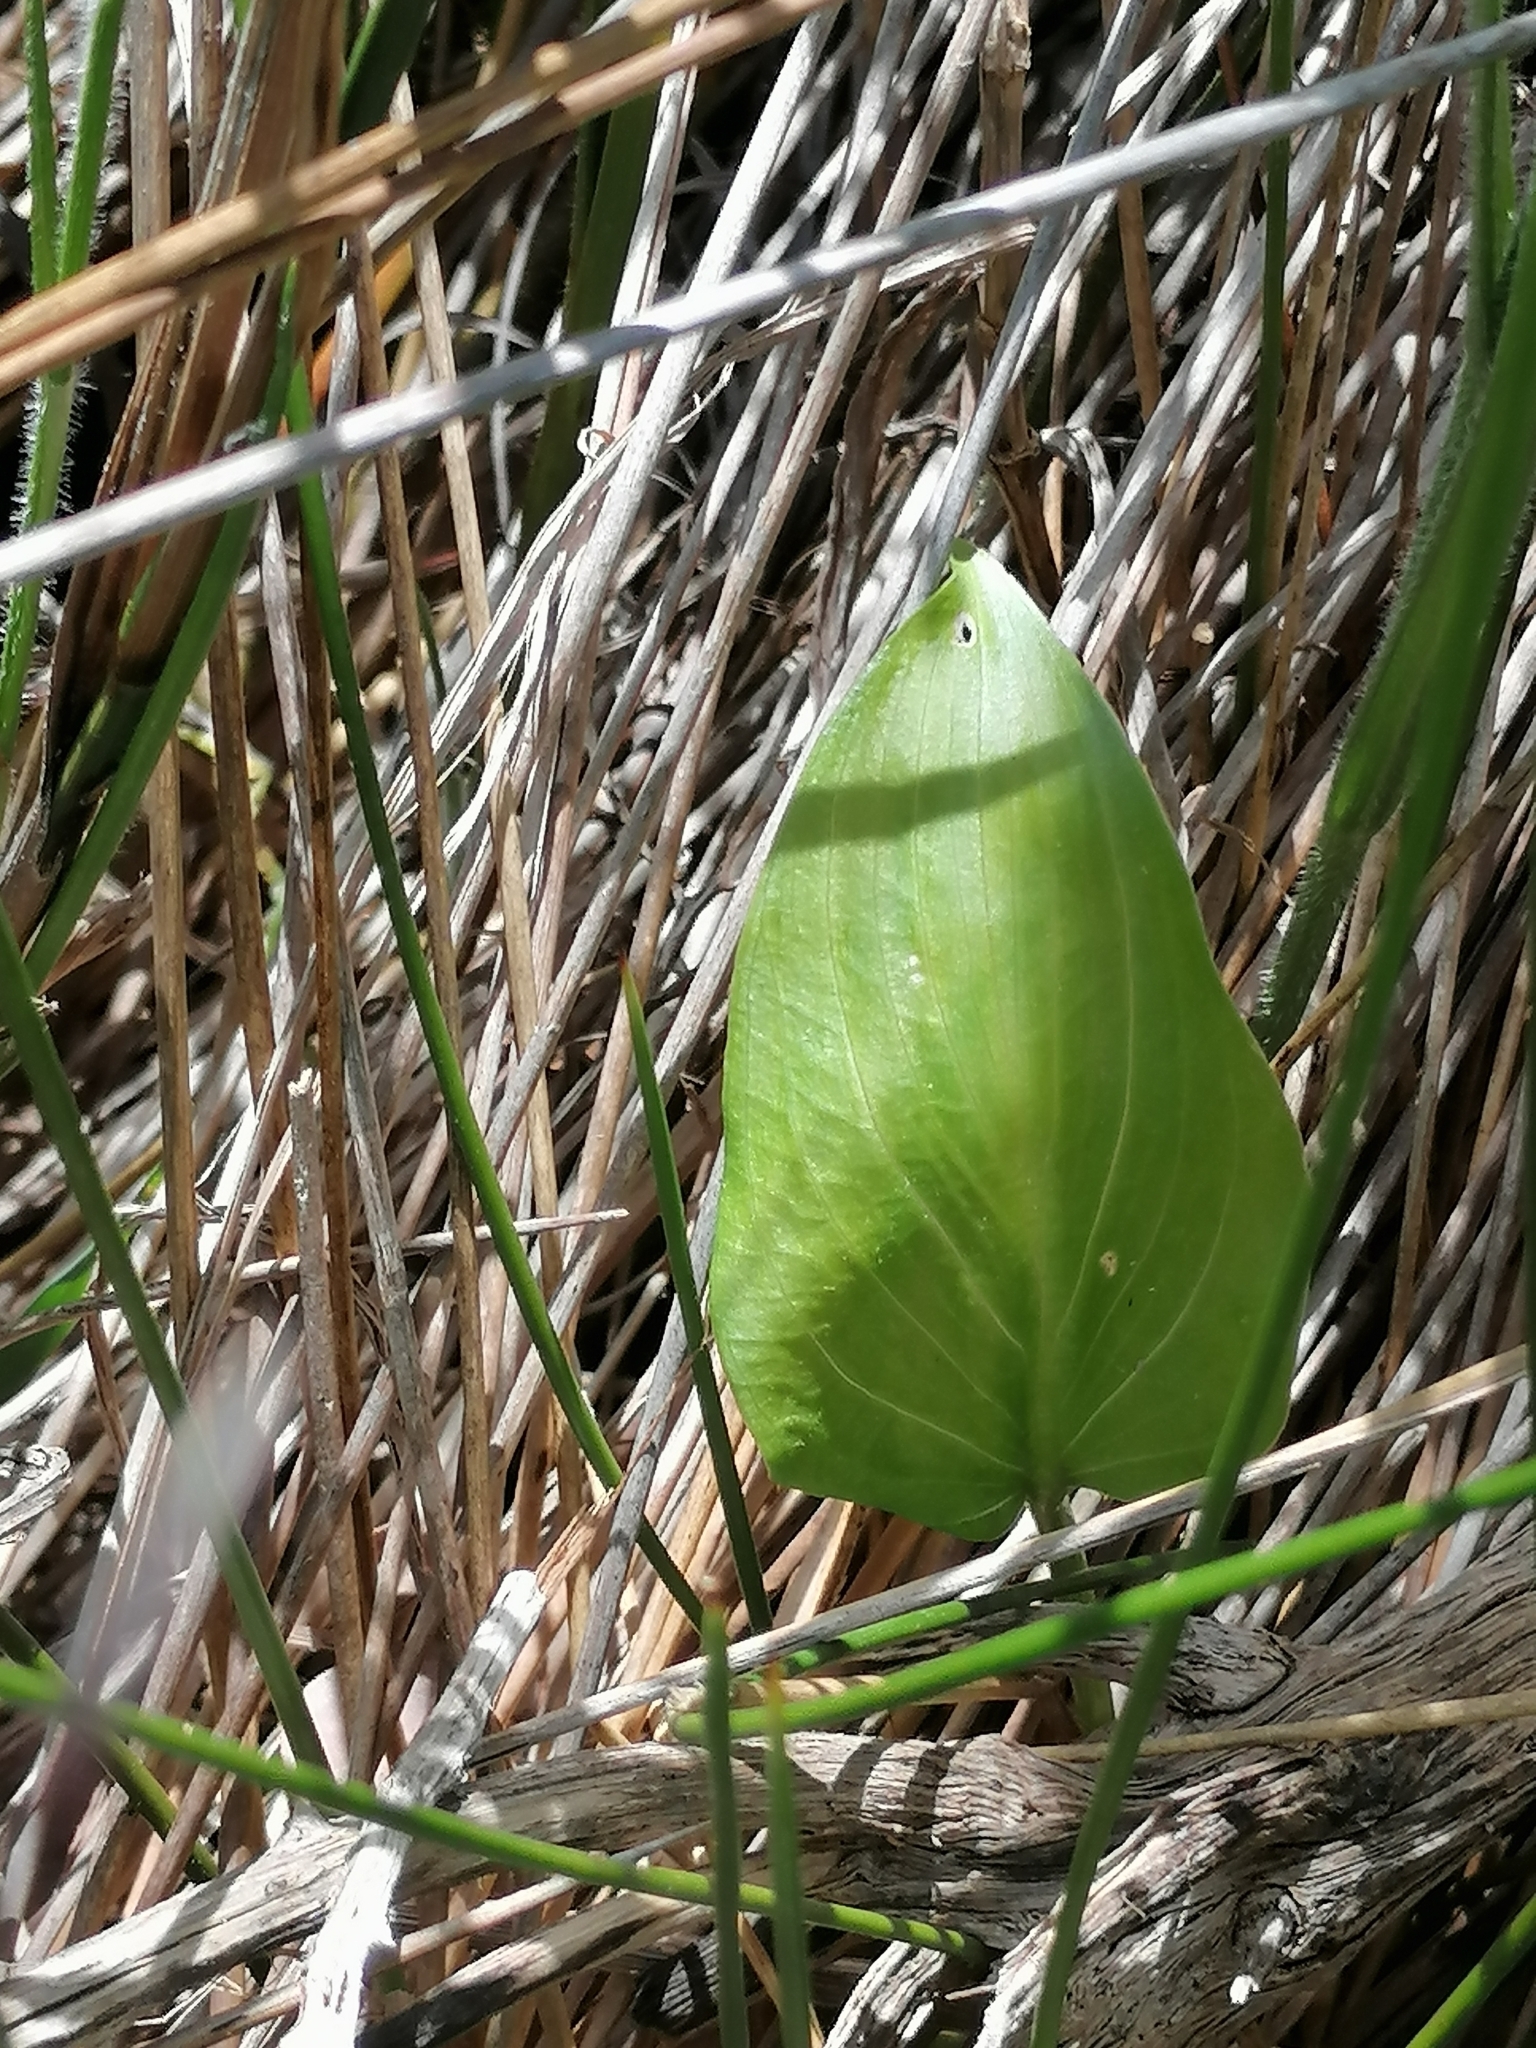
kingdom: Plantae
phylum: Tracheophyta
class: Liliopsida
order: Asparagales
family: Orchidaceae
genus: Evotella
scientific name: Evotella carnosa
